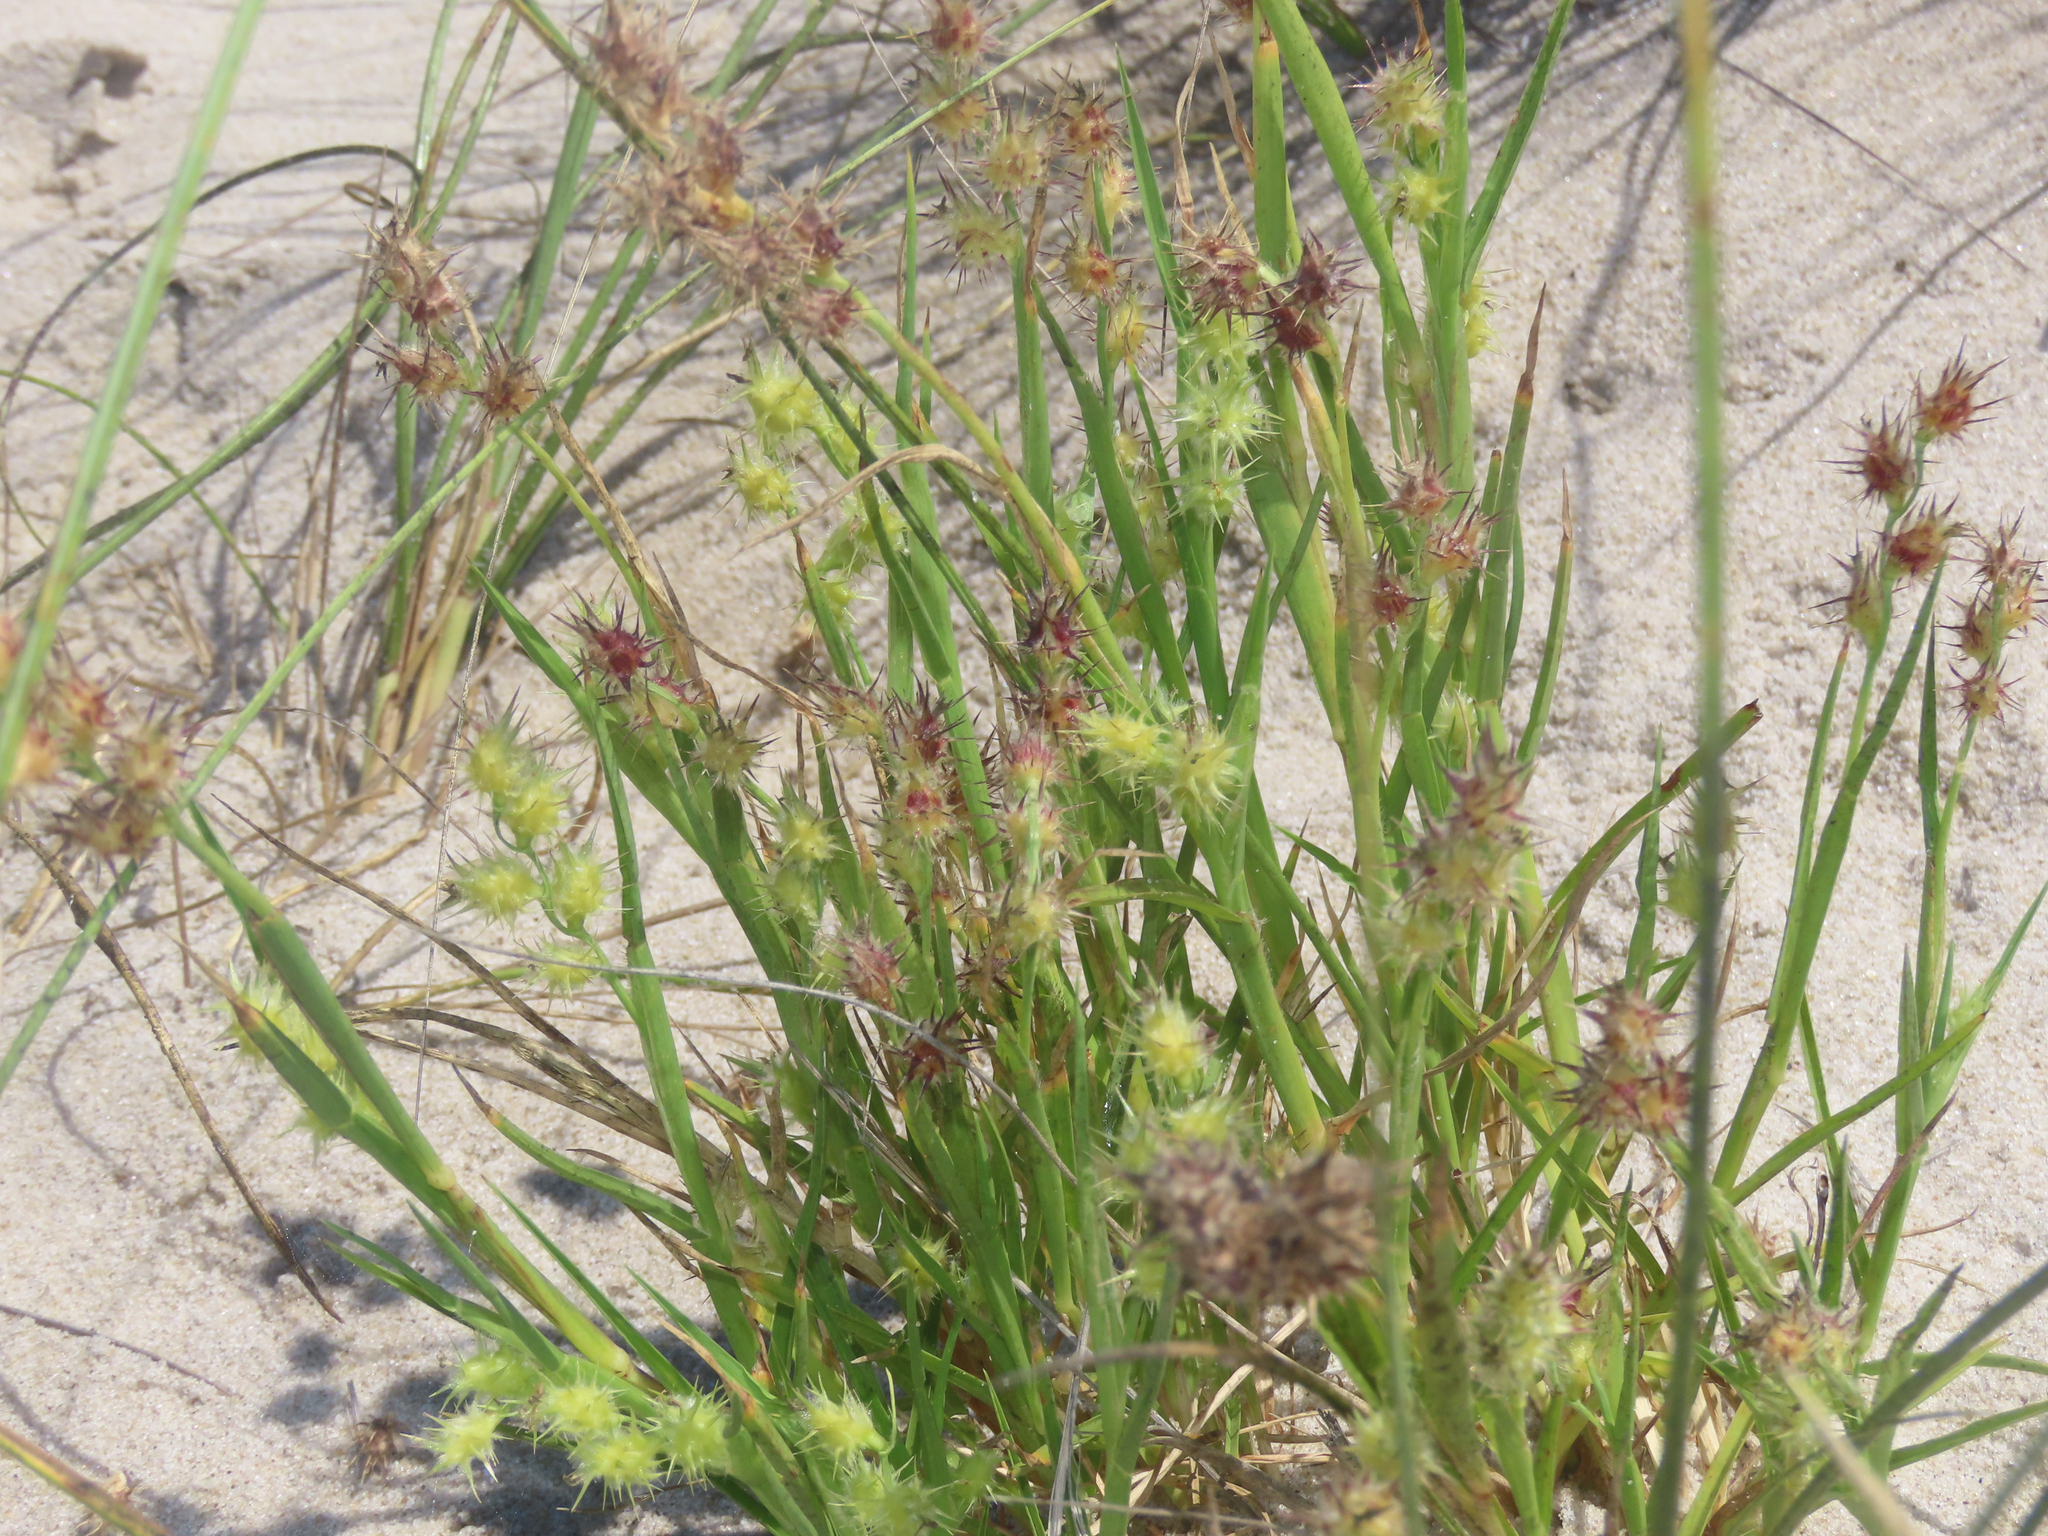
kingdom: Plantae
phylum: Tracheophyta
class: Liliopsida
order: Poales
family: Poaceae
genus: Cenchrus
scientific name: Cenchrus tribuloides
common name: Dune sandbur
